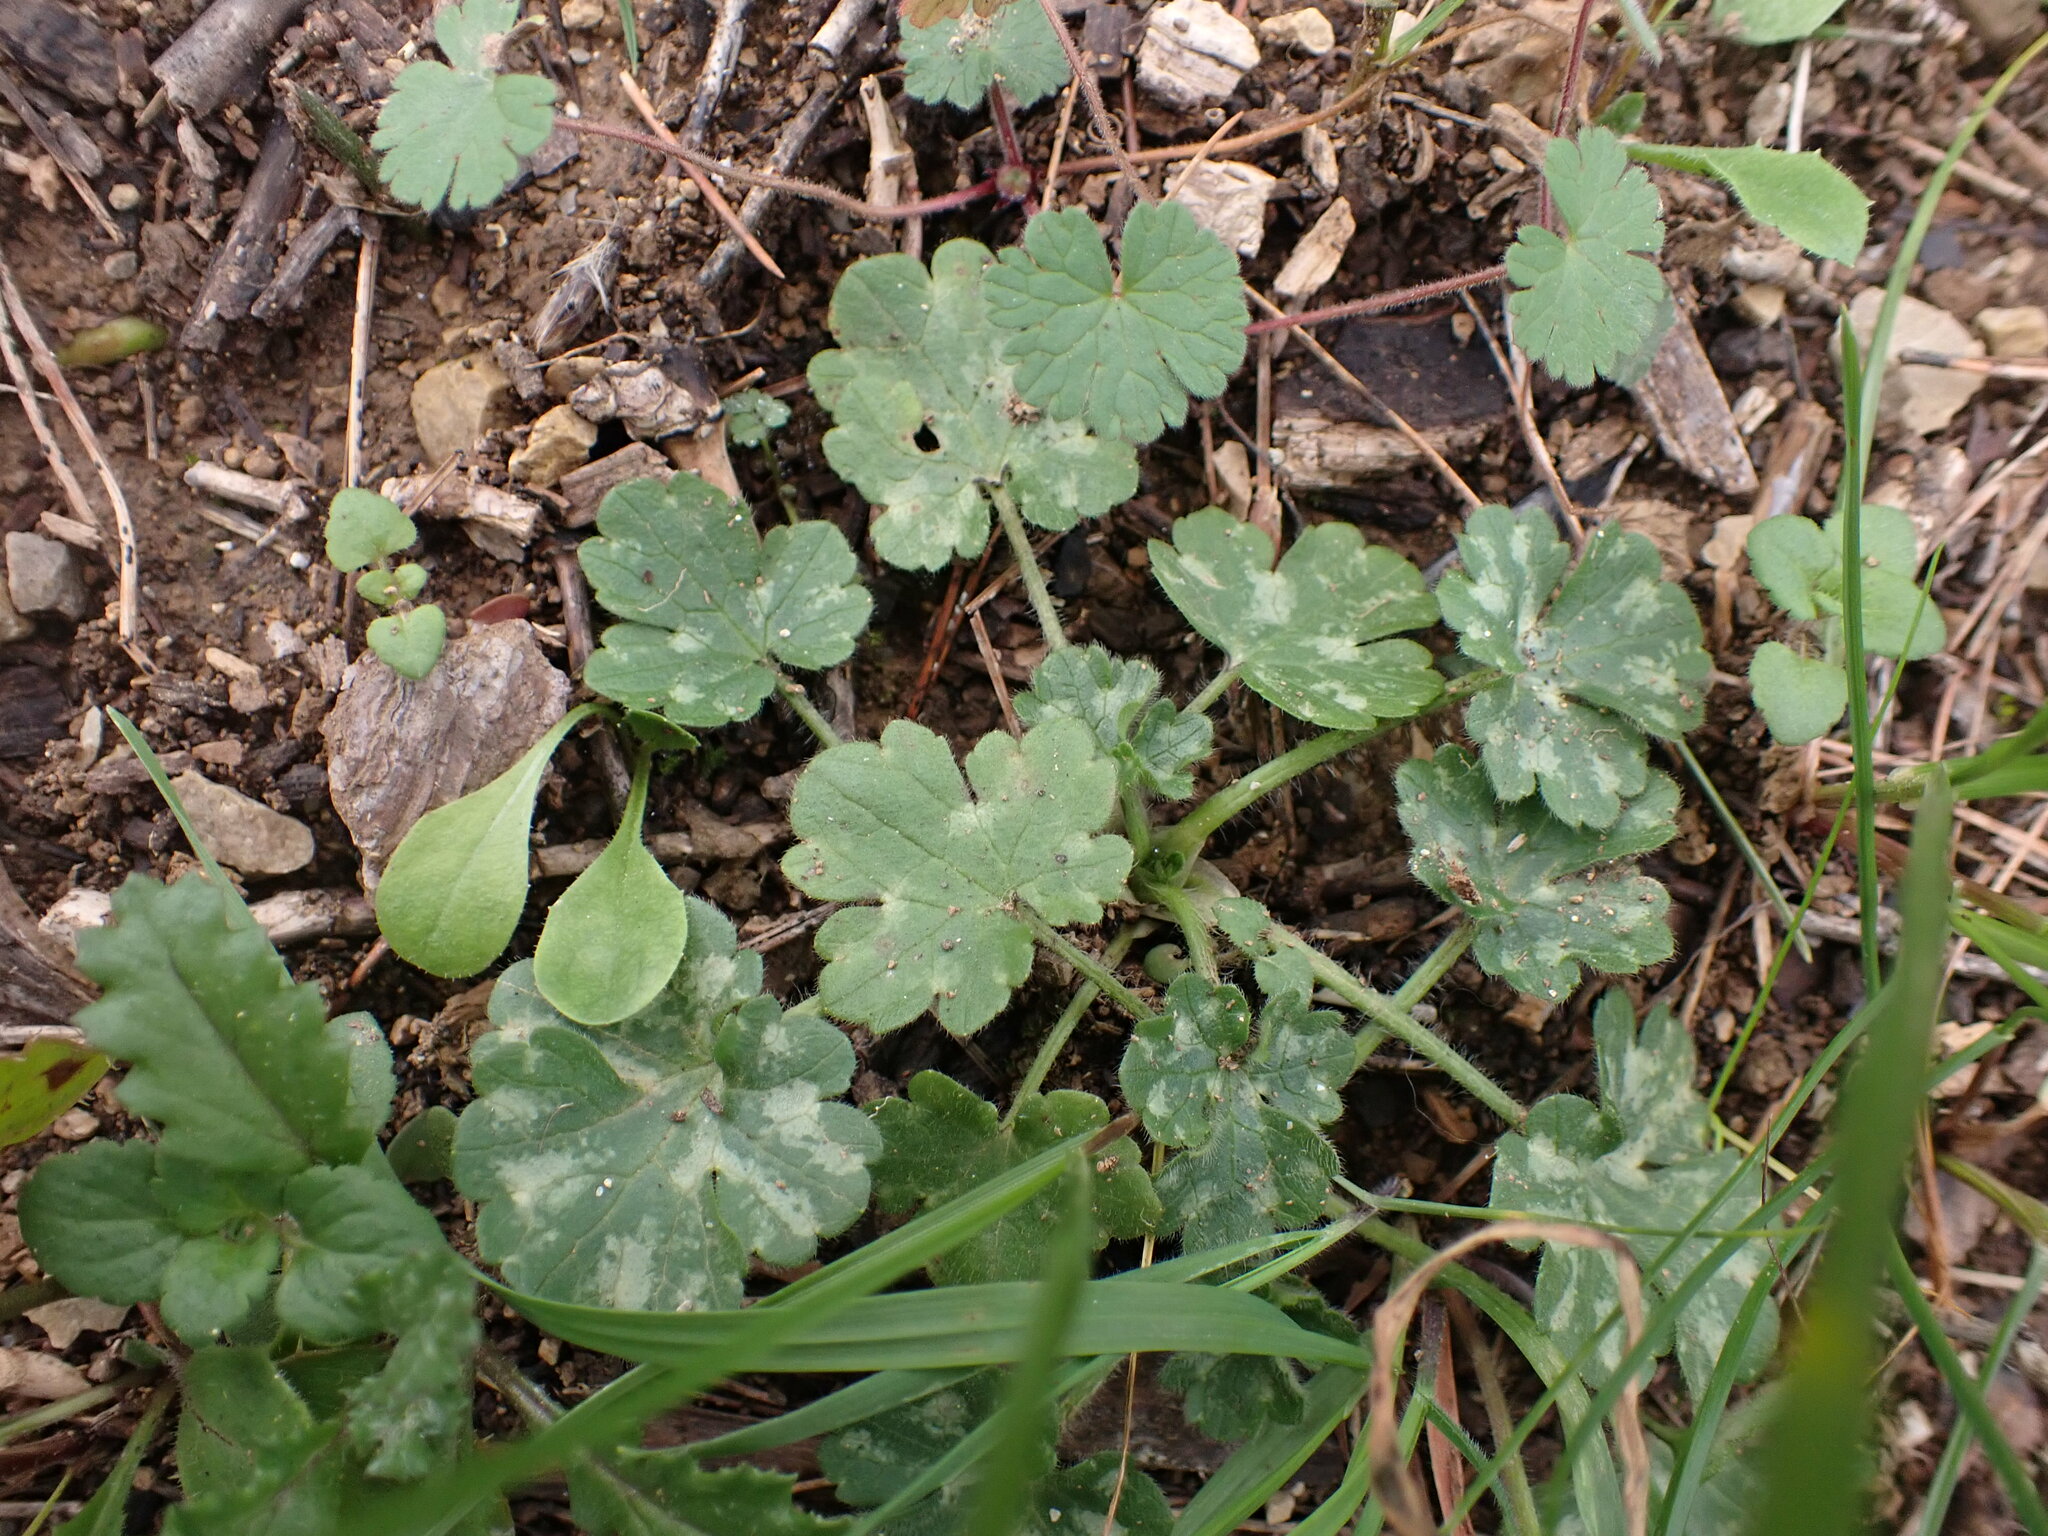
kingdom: Plantae
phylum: Tracheophyta
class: Magnoliopsida
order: Ranunculales
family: Ranunculaceae
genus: Ranunculus
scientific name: Ranunculus bulbosus
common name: Bulbous buttercup
